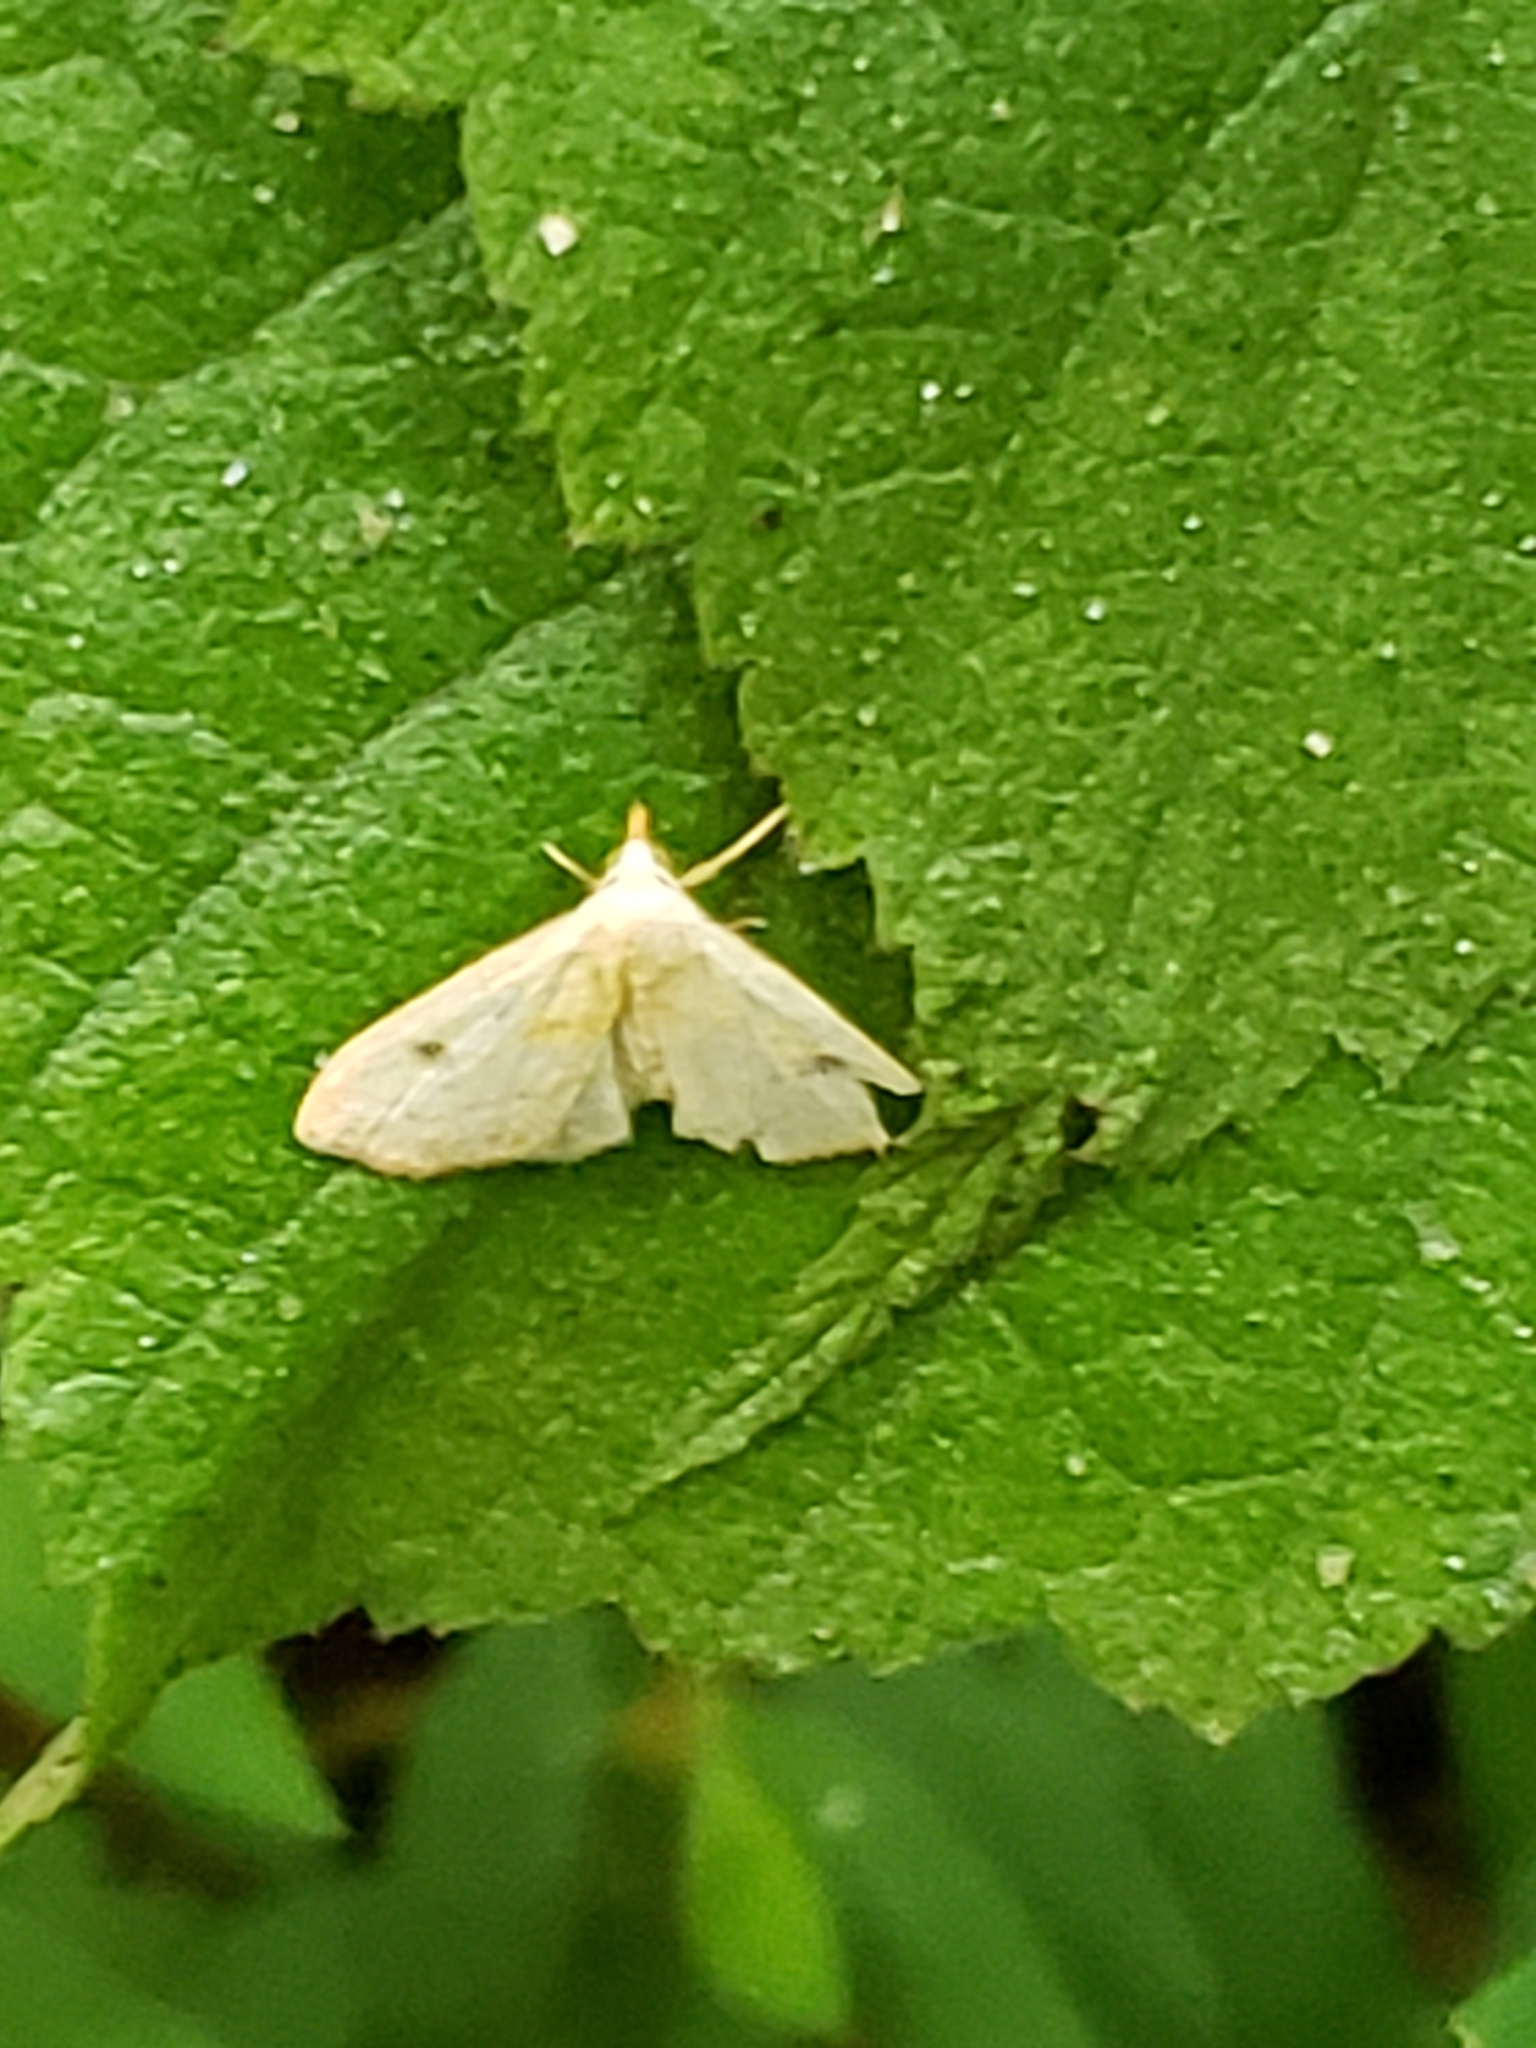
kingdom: Animalia
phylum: Arthropoda
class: Insecta
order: Lepidoptera
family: Erebidae
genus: Rivula
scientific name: Rivula propinqualis
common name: Spotted grass moth
